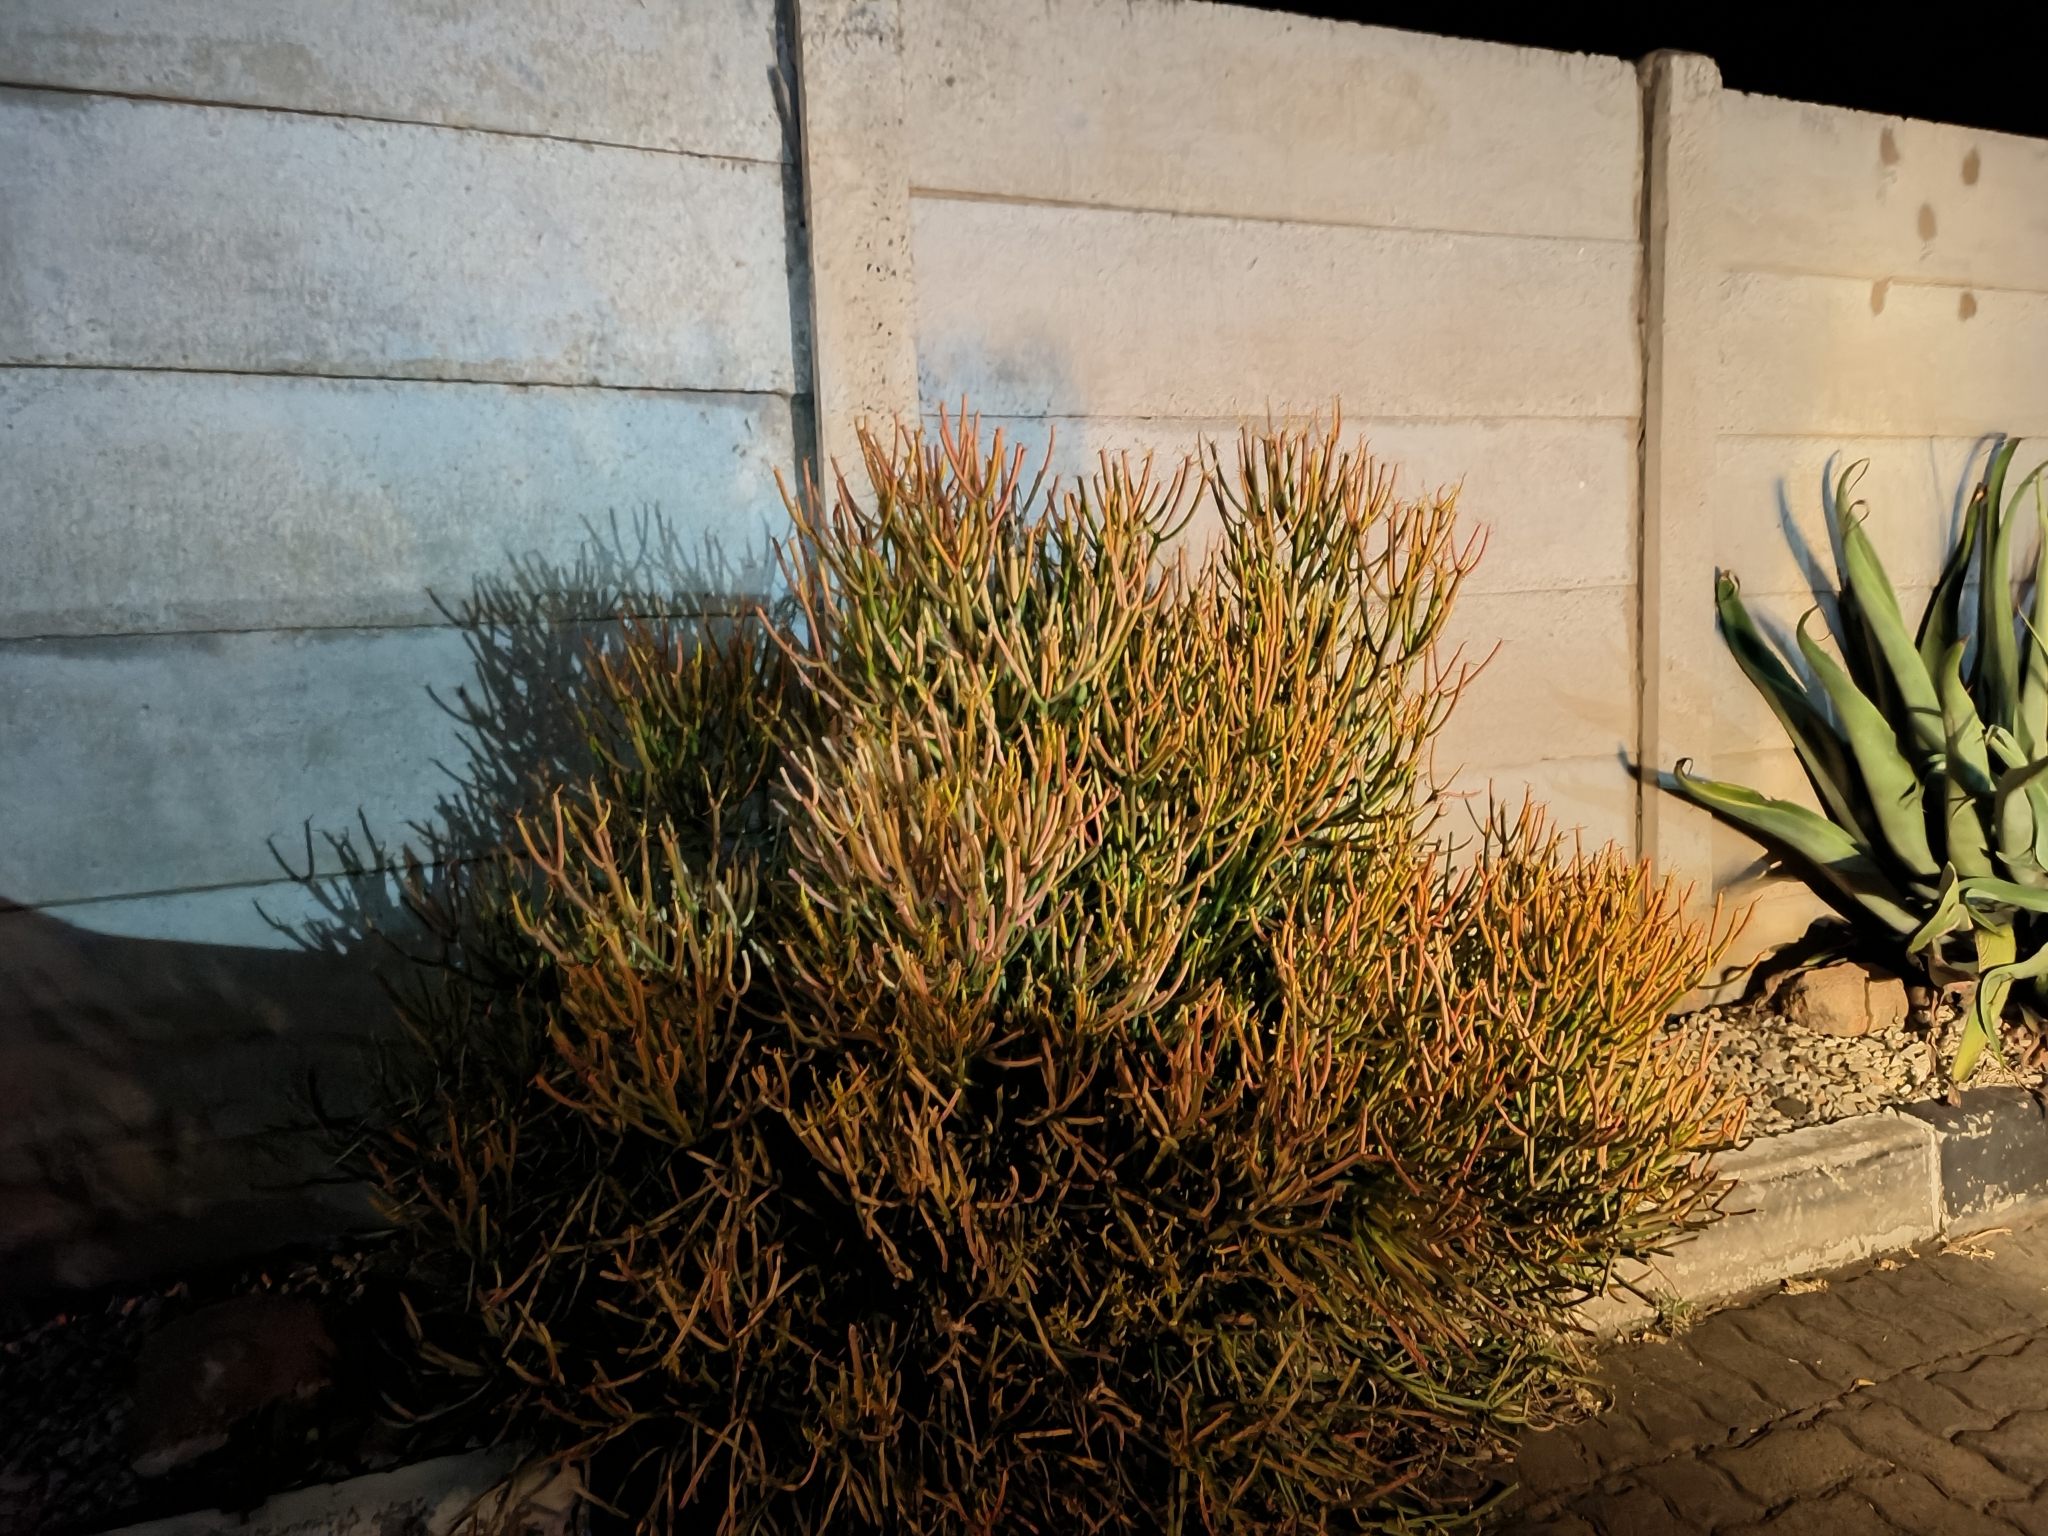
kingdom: Plantae
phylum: Tracheophyta
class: Magnoliopsida
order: Malpighiales
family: Euphorbiaceae
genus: Euphorbia
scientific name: Euphorbia tirucalli
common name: Indiantree spurge
